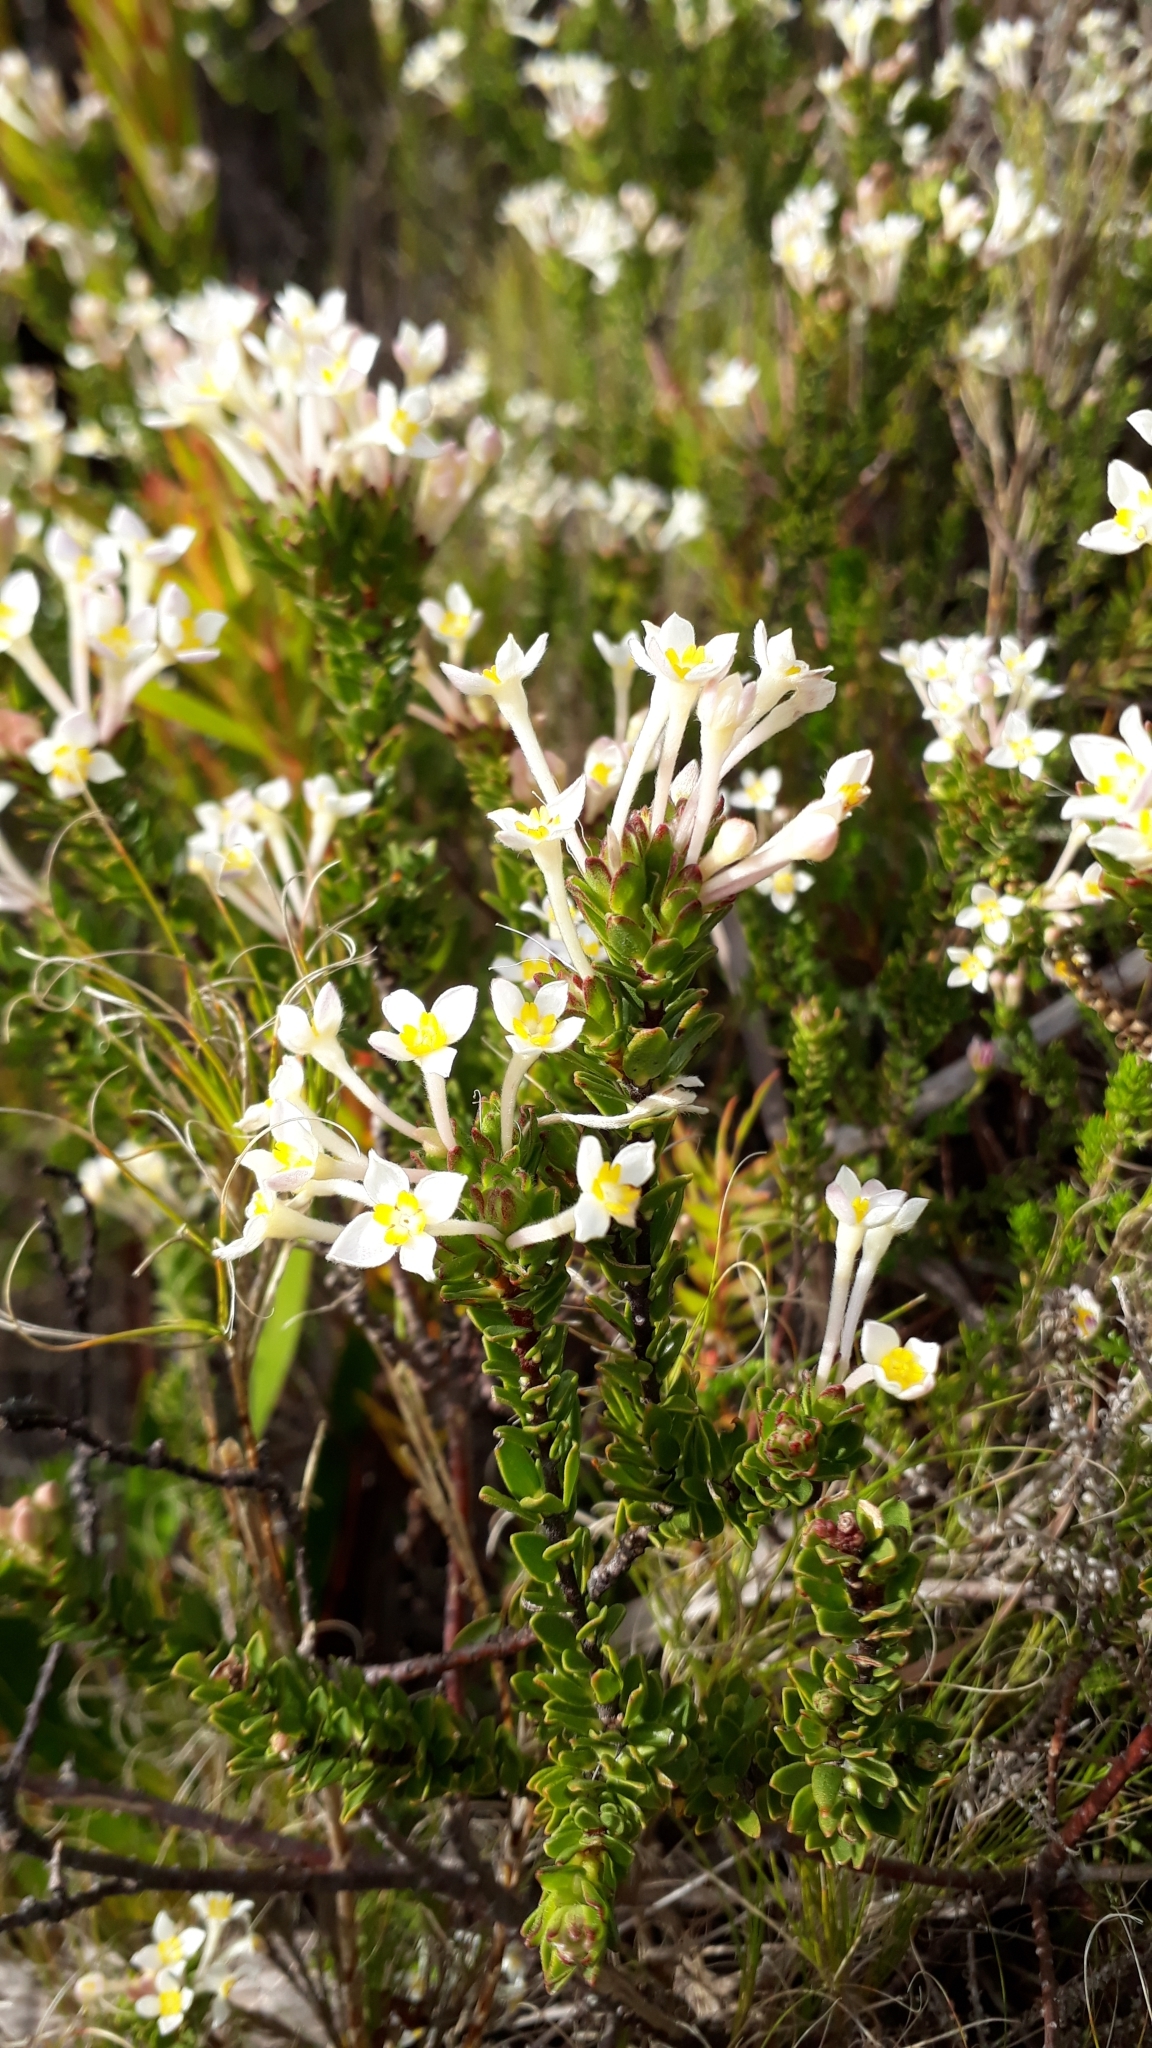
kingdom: Plantae
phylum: Tracheophyta
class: Magnoliopsida
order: Malvales
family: Thymelaeaceae
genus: Gnidia
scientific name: Gnidia tomentosa
